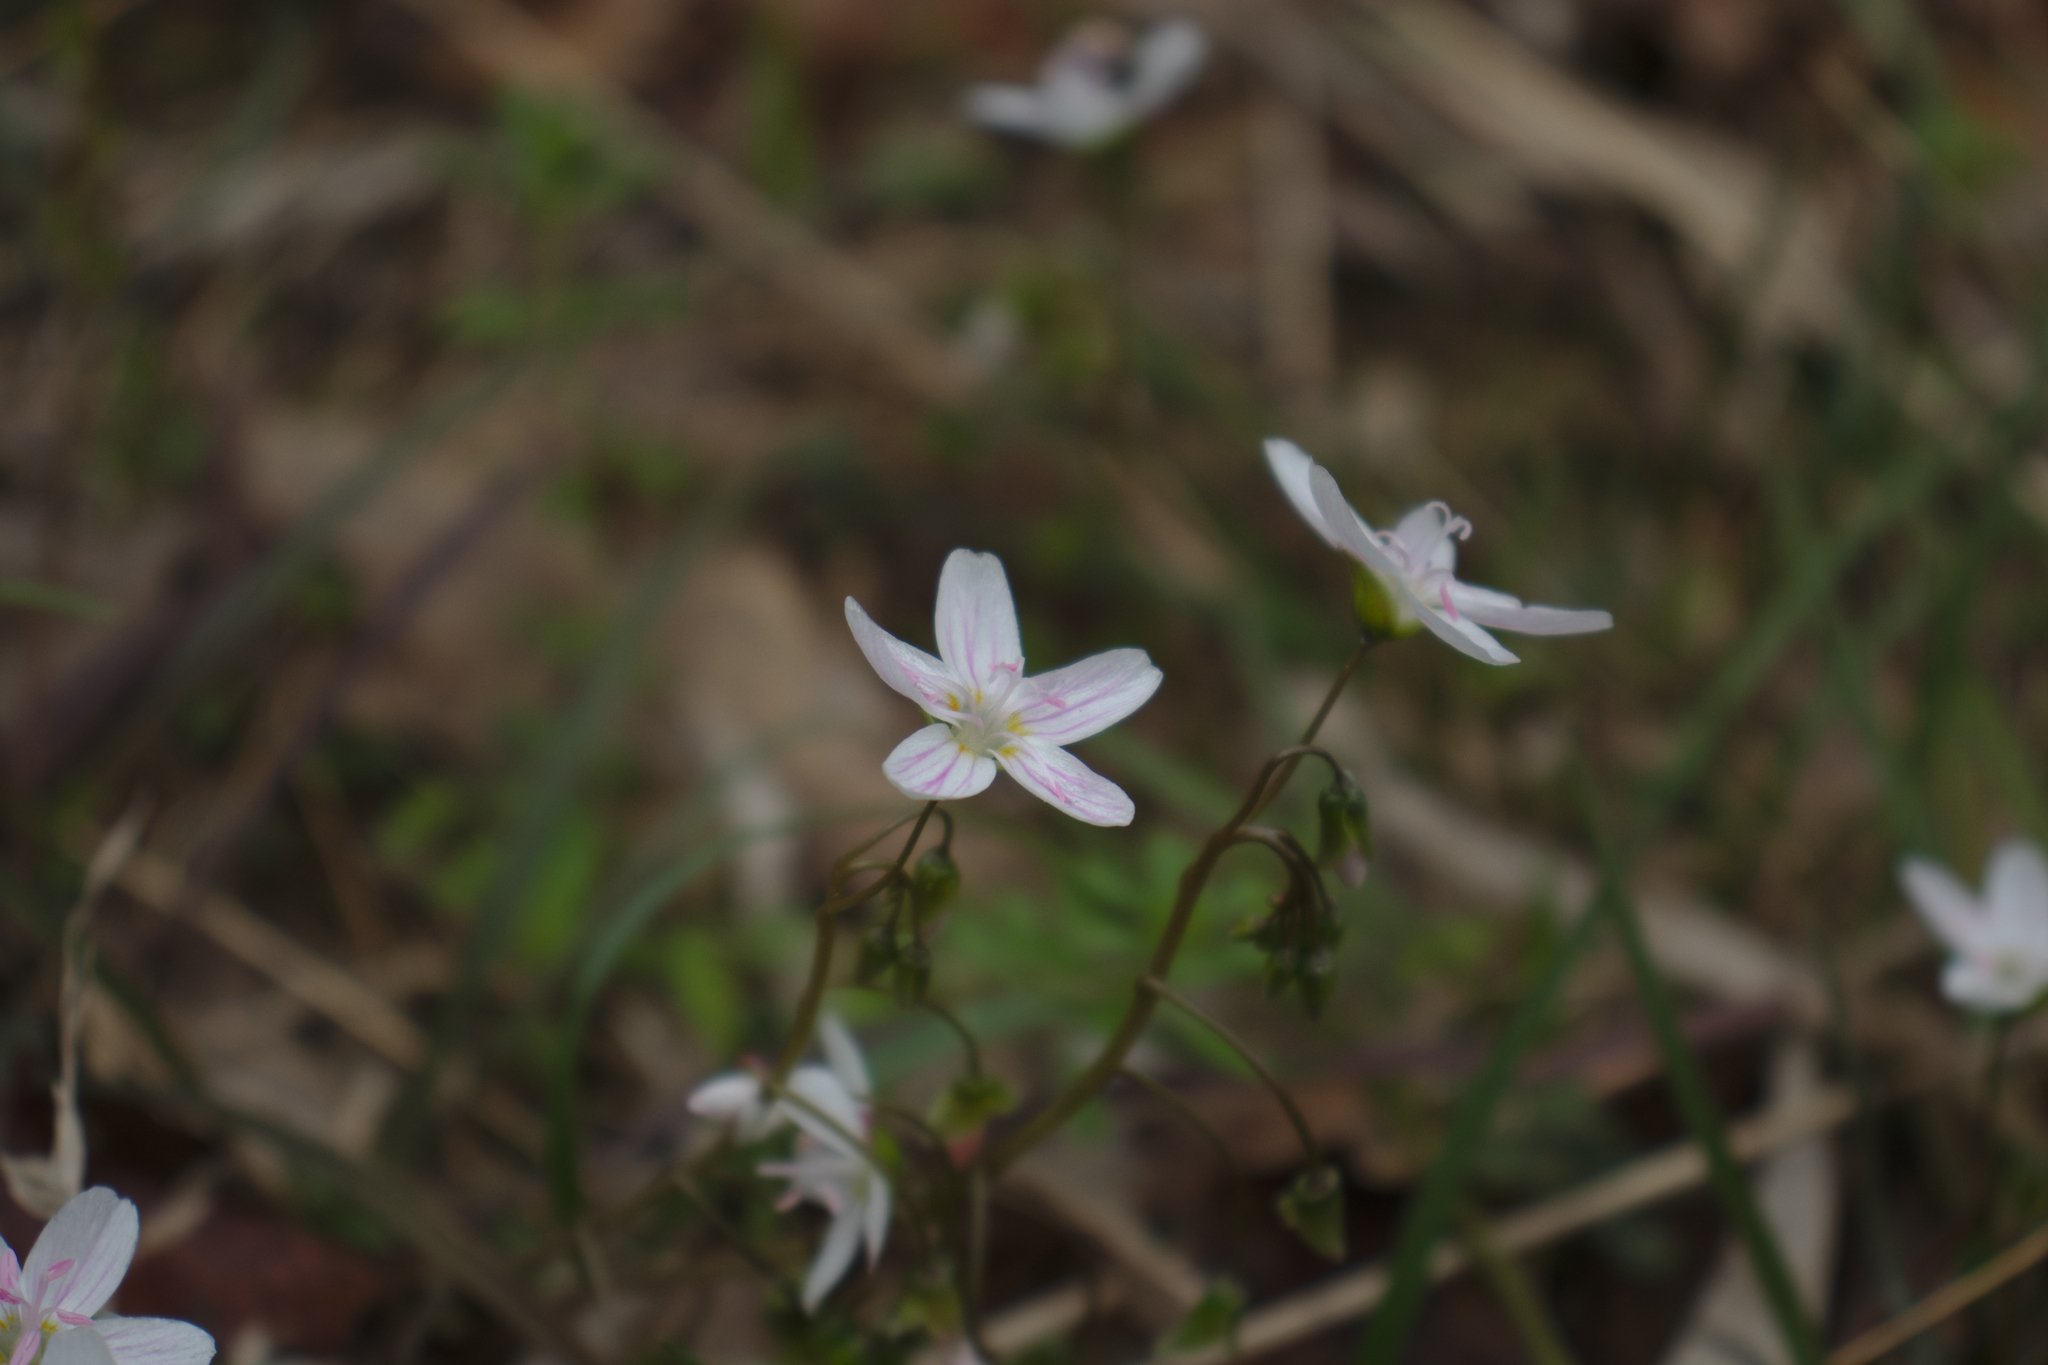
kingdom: Plantae
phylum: Tracheophyta
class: Magnoliopsida
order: Caryophyllales
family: Montiaceae
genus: Claytonia
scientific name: Claytonia virginica
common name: Virginia springbeauty
